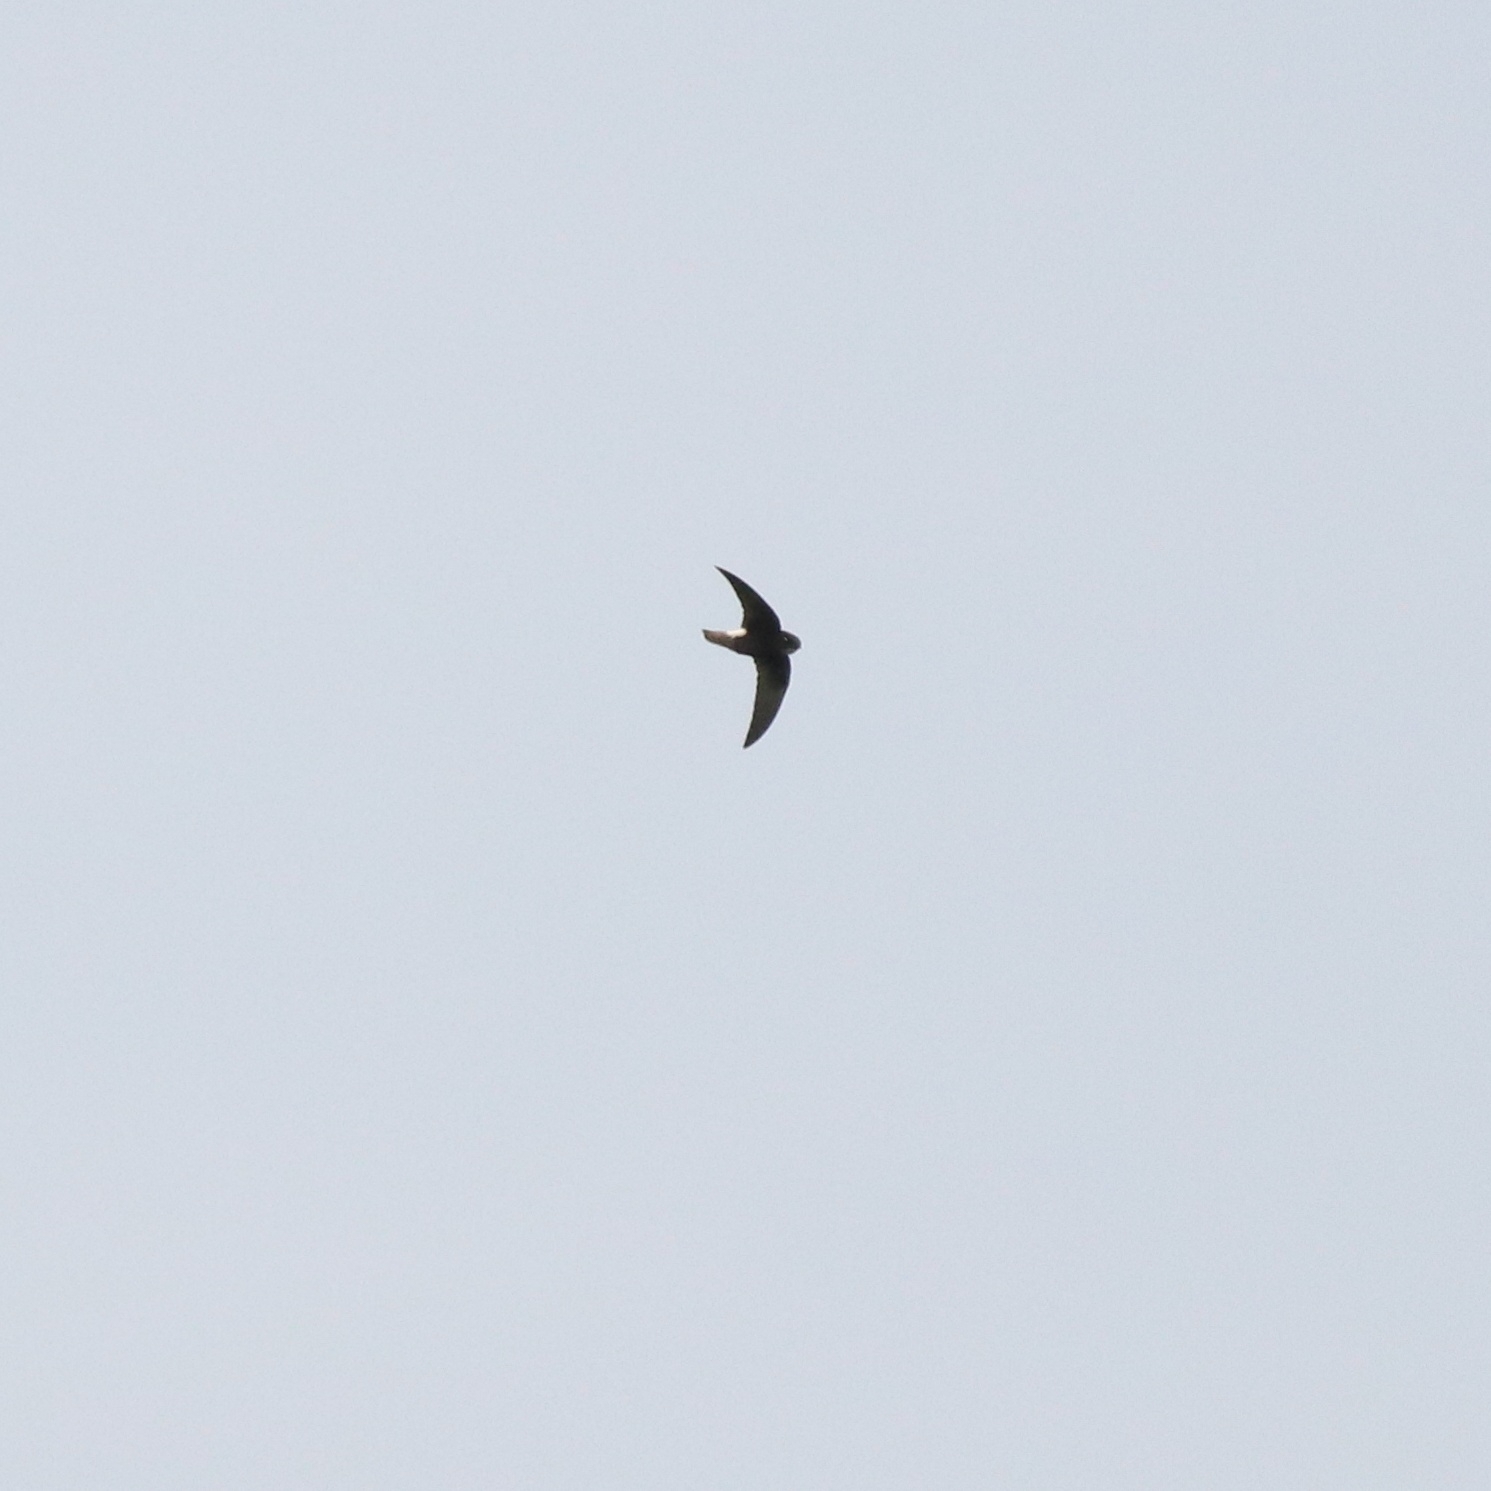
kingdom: Animalia
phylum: Chordata
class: Aves
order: Apodiformes
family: Apodidae
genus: Apus
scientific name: Apus affinis
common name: Little swift
